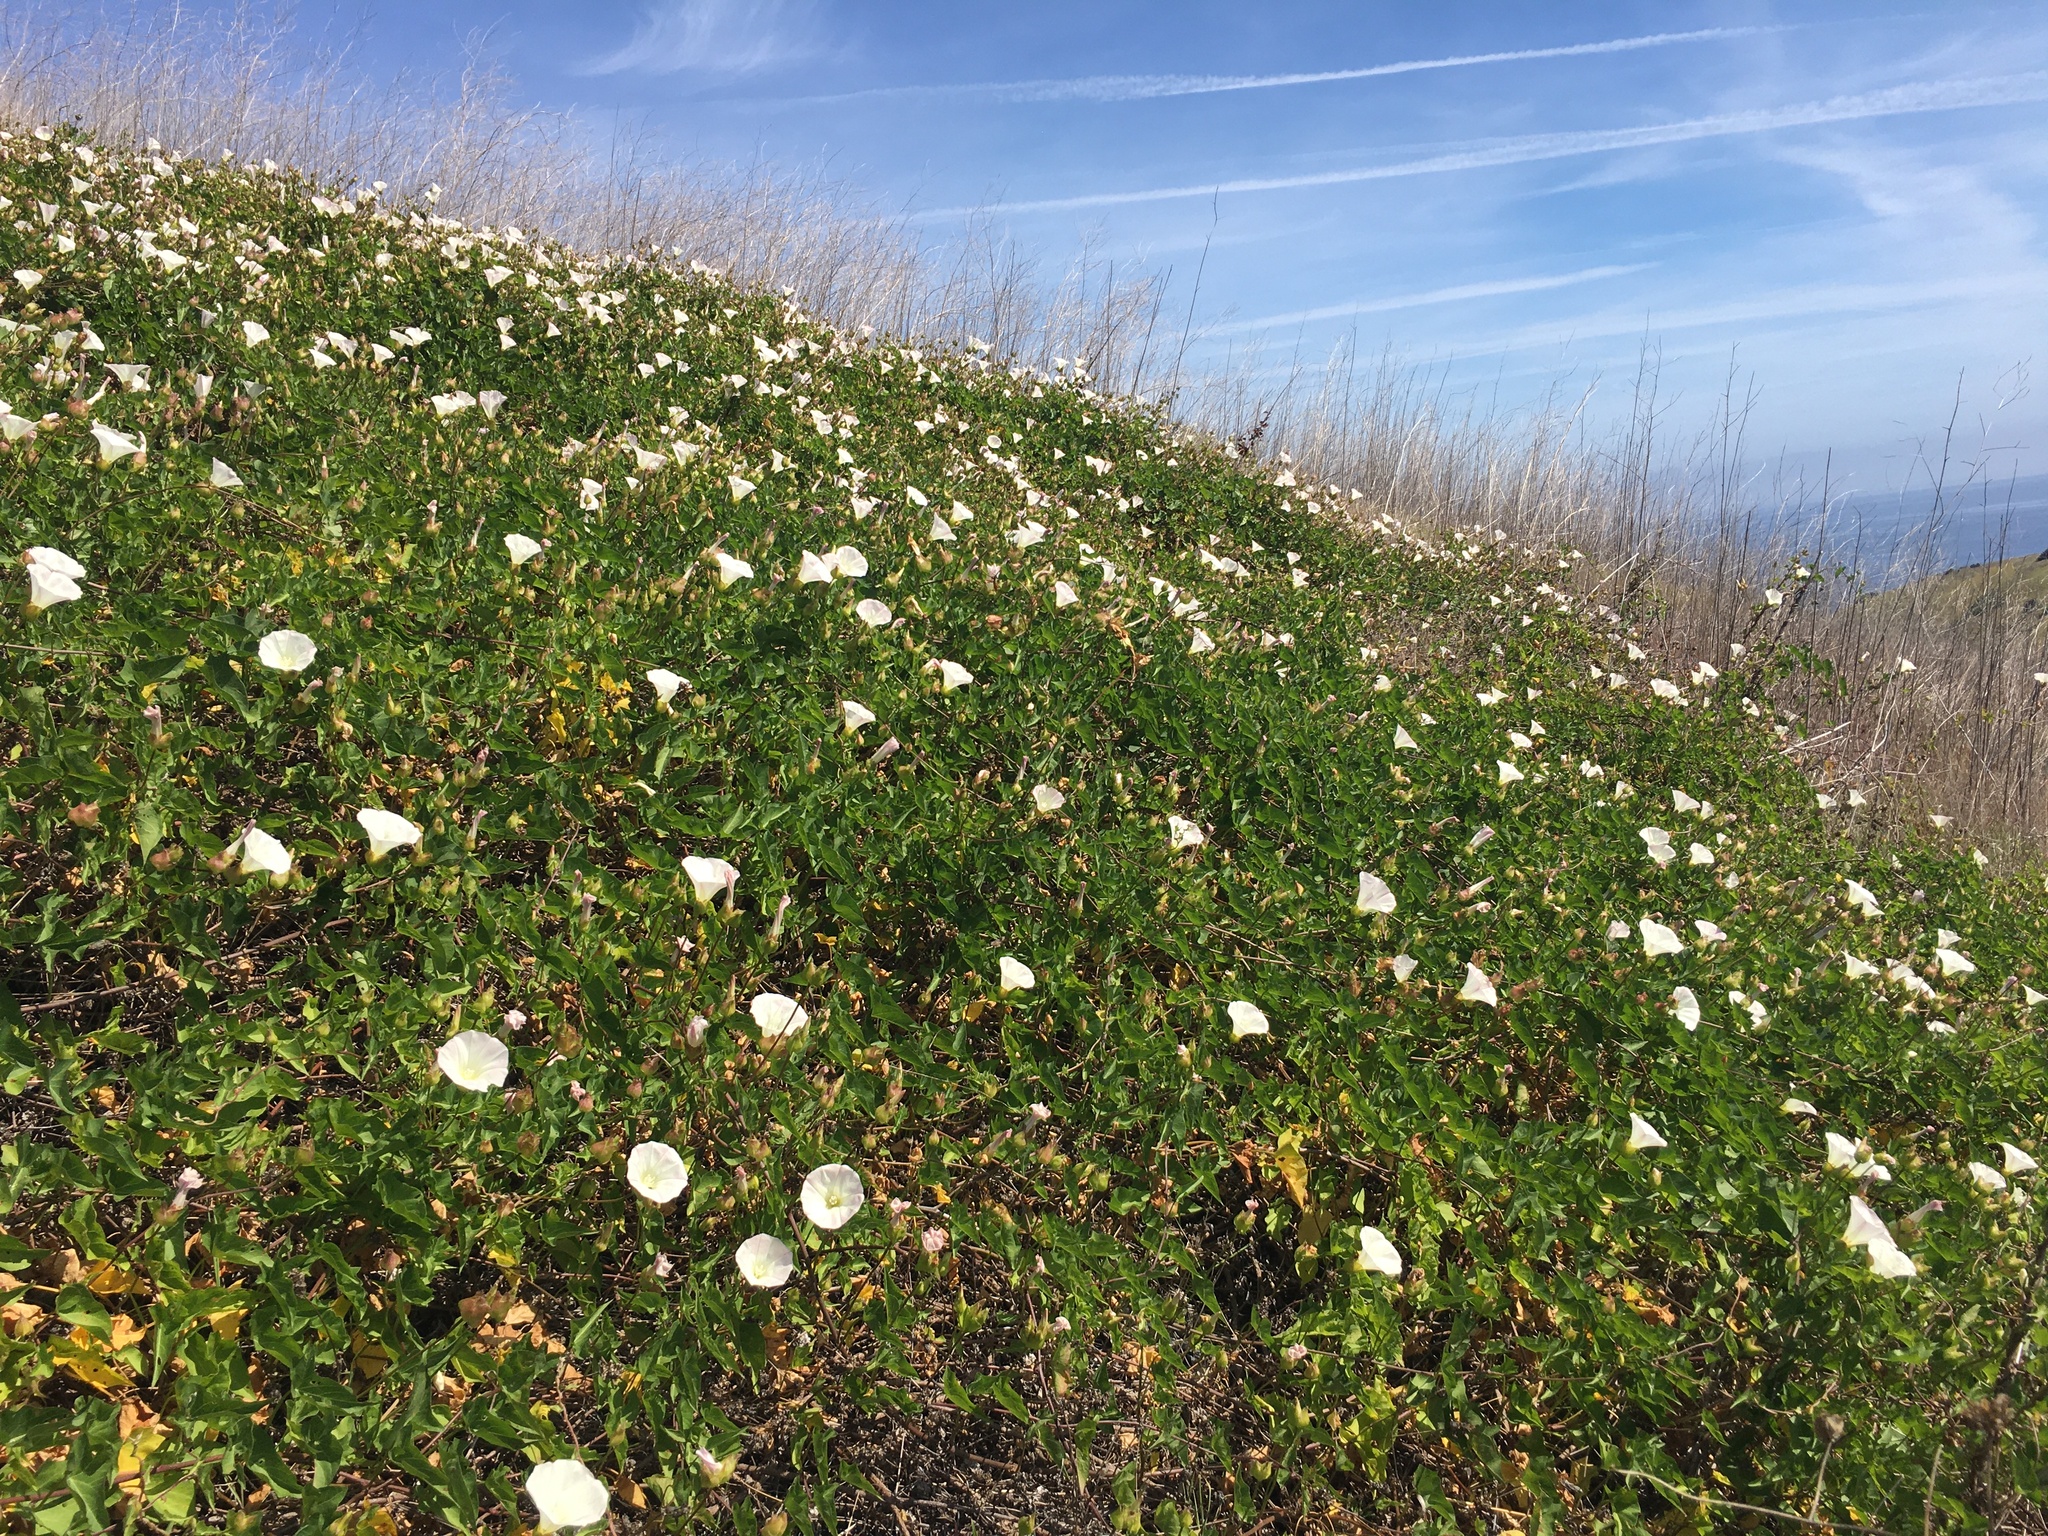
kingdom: Plantae
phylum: Tracheophyta
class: Magnoliopsida
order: Solanales
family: Convolvulaceae
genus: Calystegia
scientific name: Calystegia macrostegia
